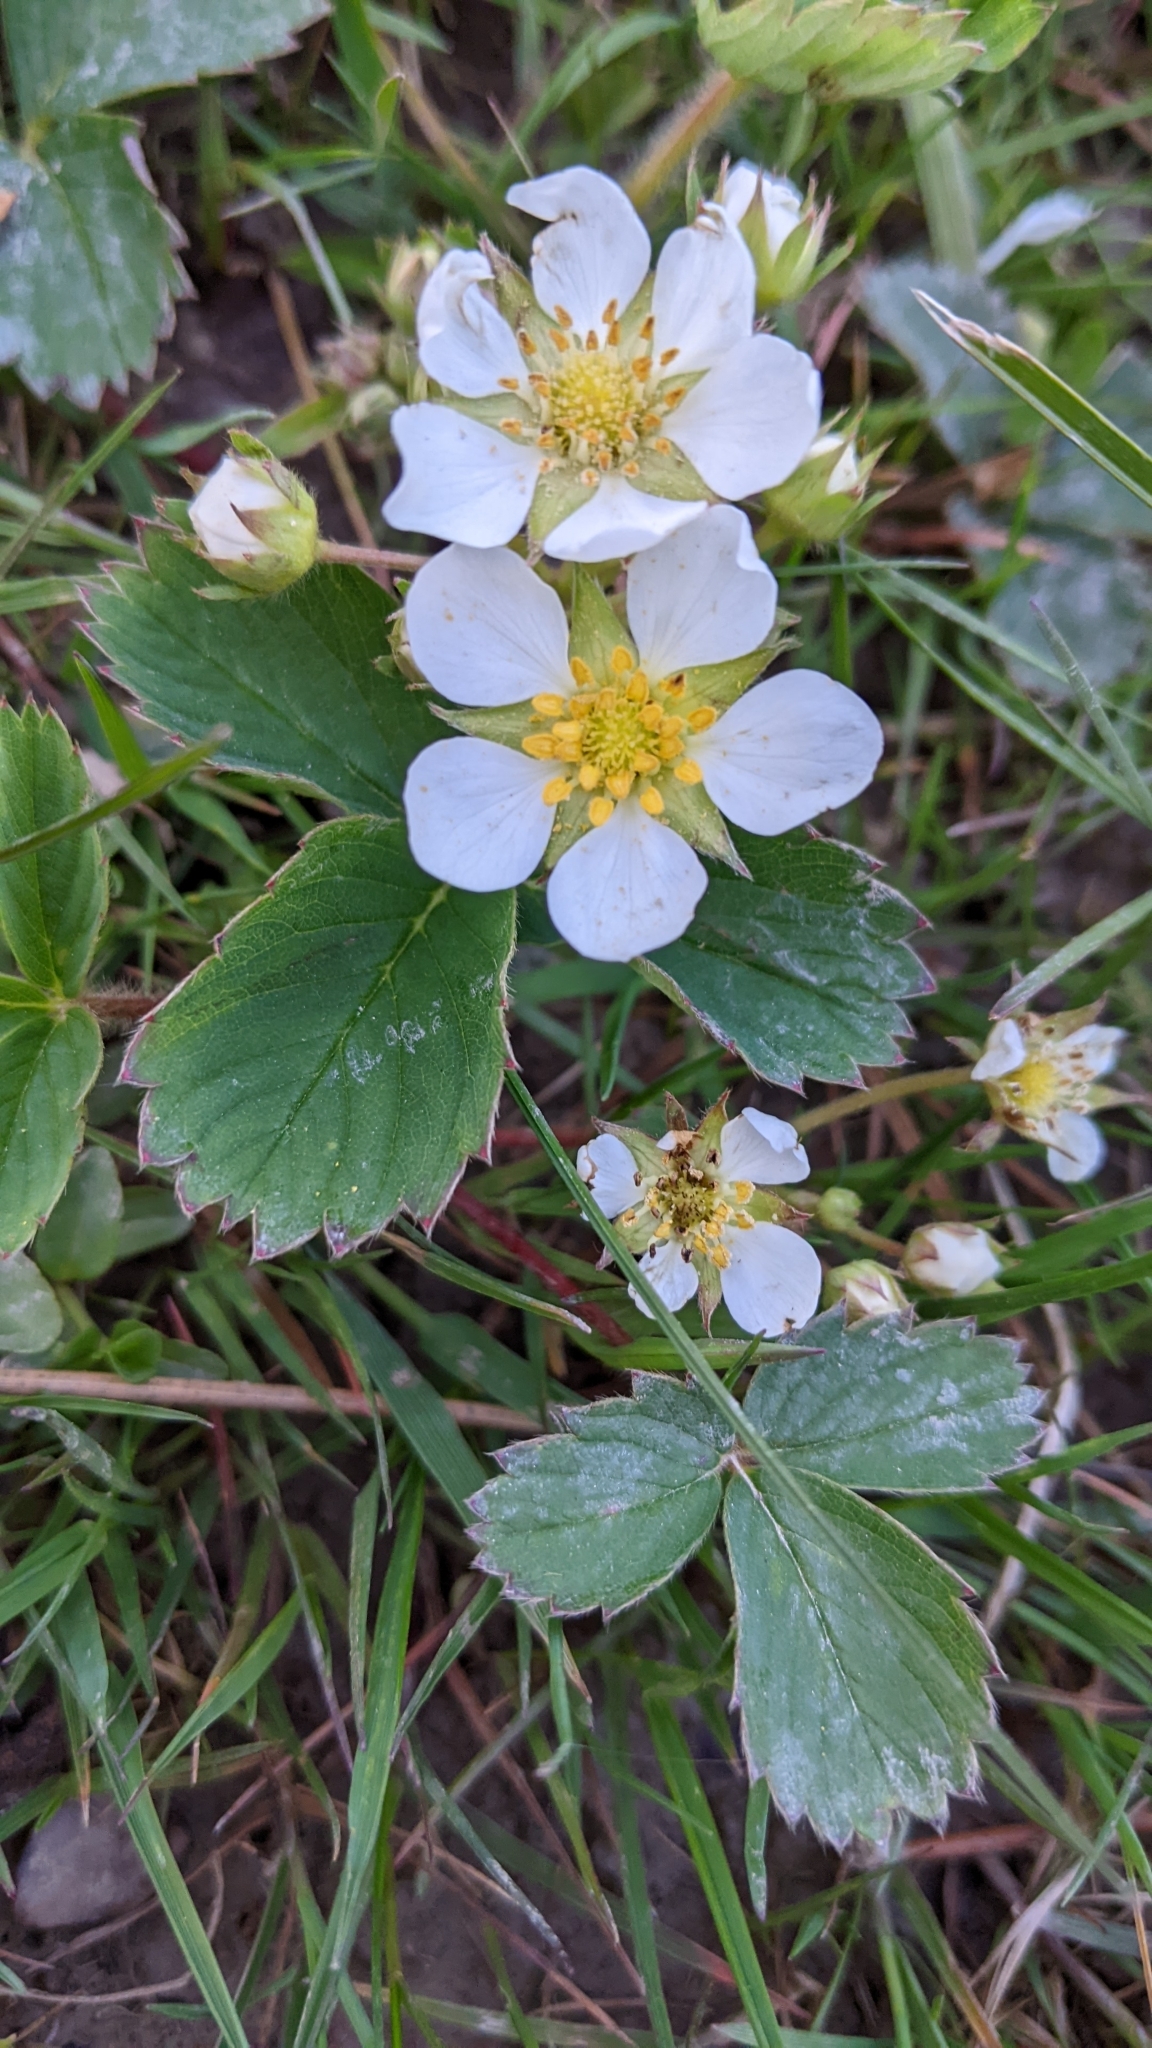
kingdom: Plantae
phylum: Tracheophyta
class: Magnoliopsida
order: Rosales
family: Rosaceae
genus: Fragaria
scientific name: Fragaria virginiana
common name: Thickleaved wild strawberry
